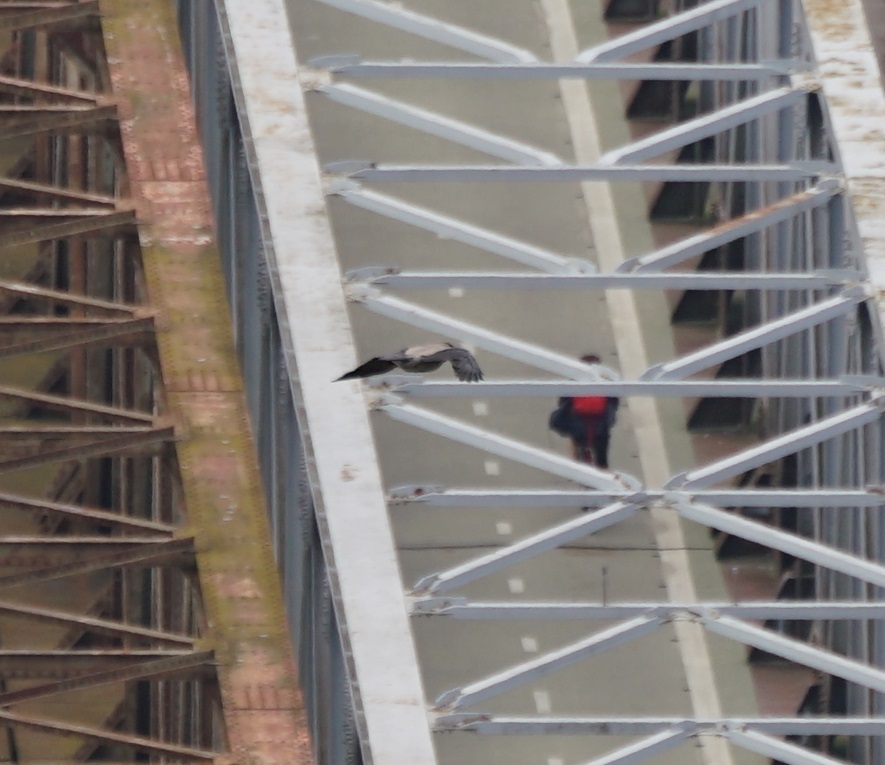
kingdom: Animalia
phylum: Chordata
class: Aves
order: Passeriformes
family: Corvidae
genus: Corvus
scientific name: Corvus cornix
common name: Hooded crow
